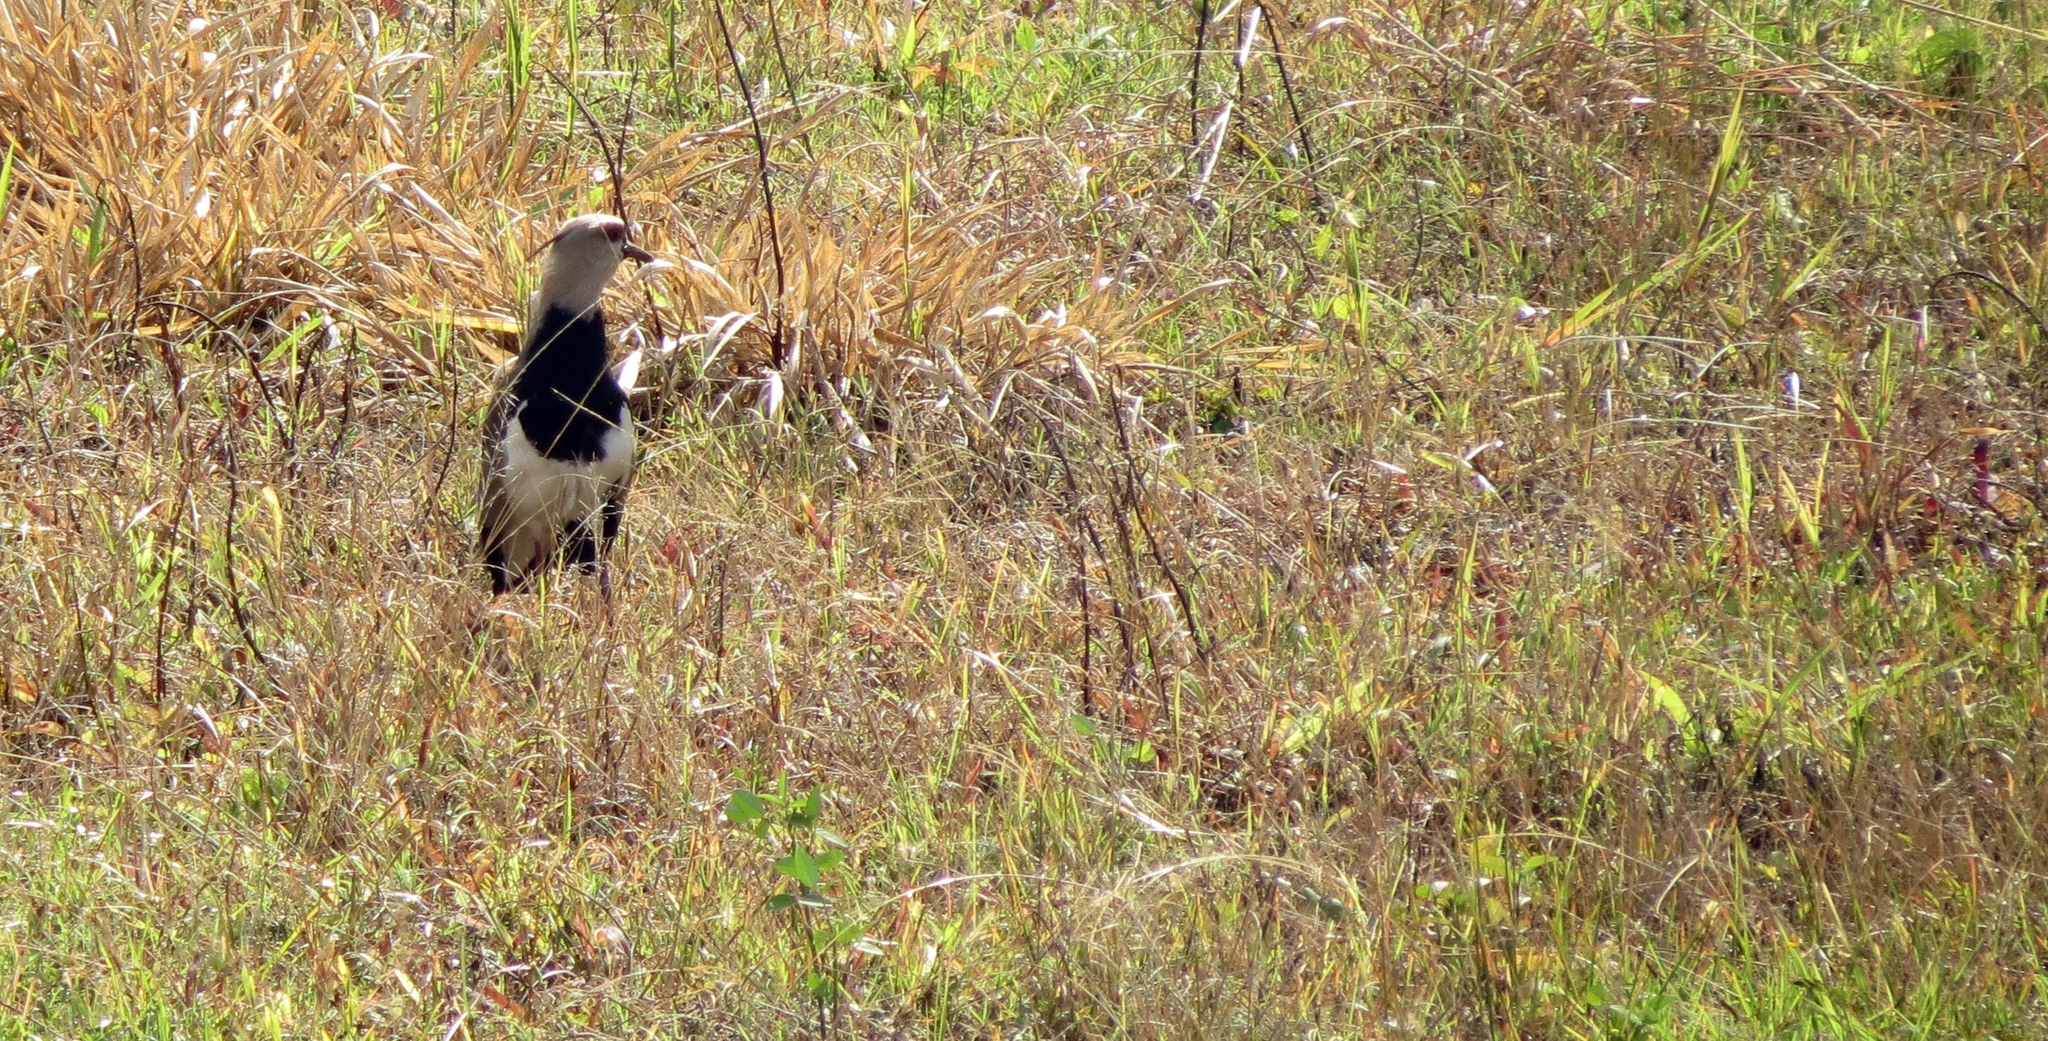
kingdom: Animalia
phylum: Chordata
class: Aves
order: Charadriiformes
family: Charadriidae
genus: Vanellus
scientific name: Vanellus chilensis
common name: Southern lapwing
